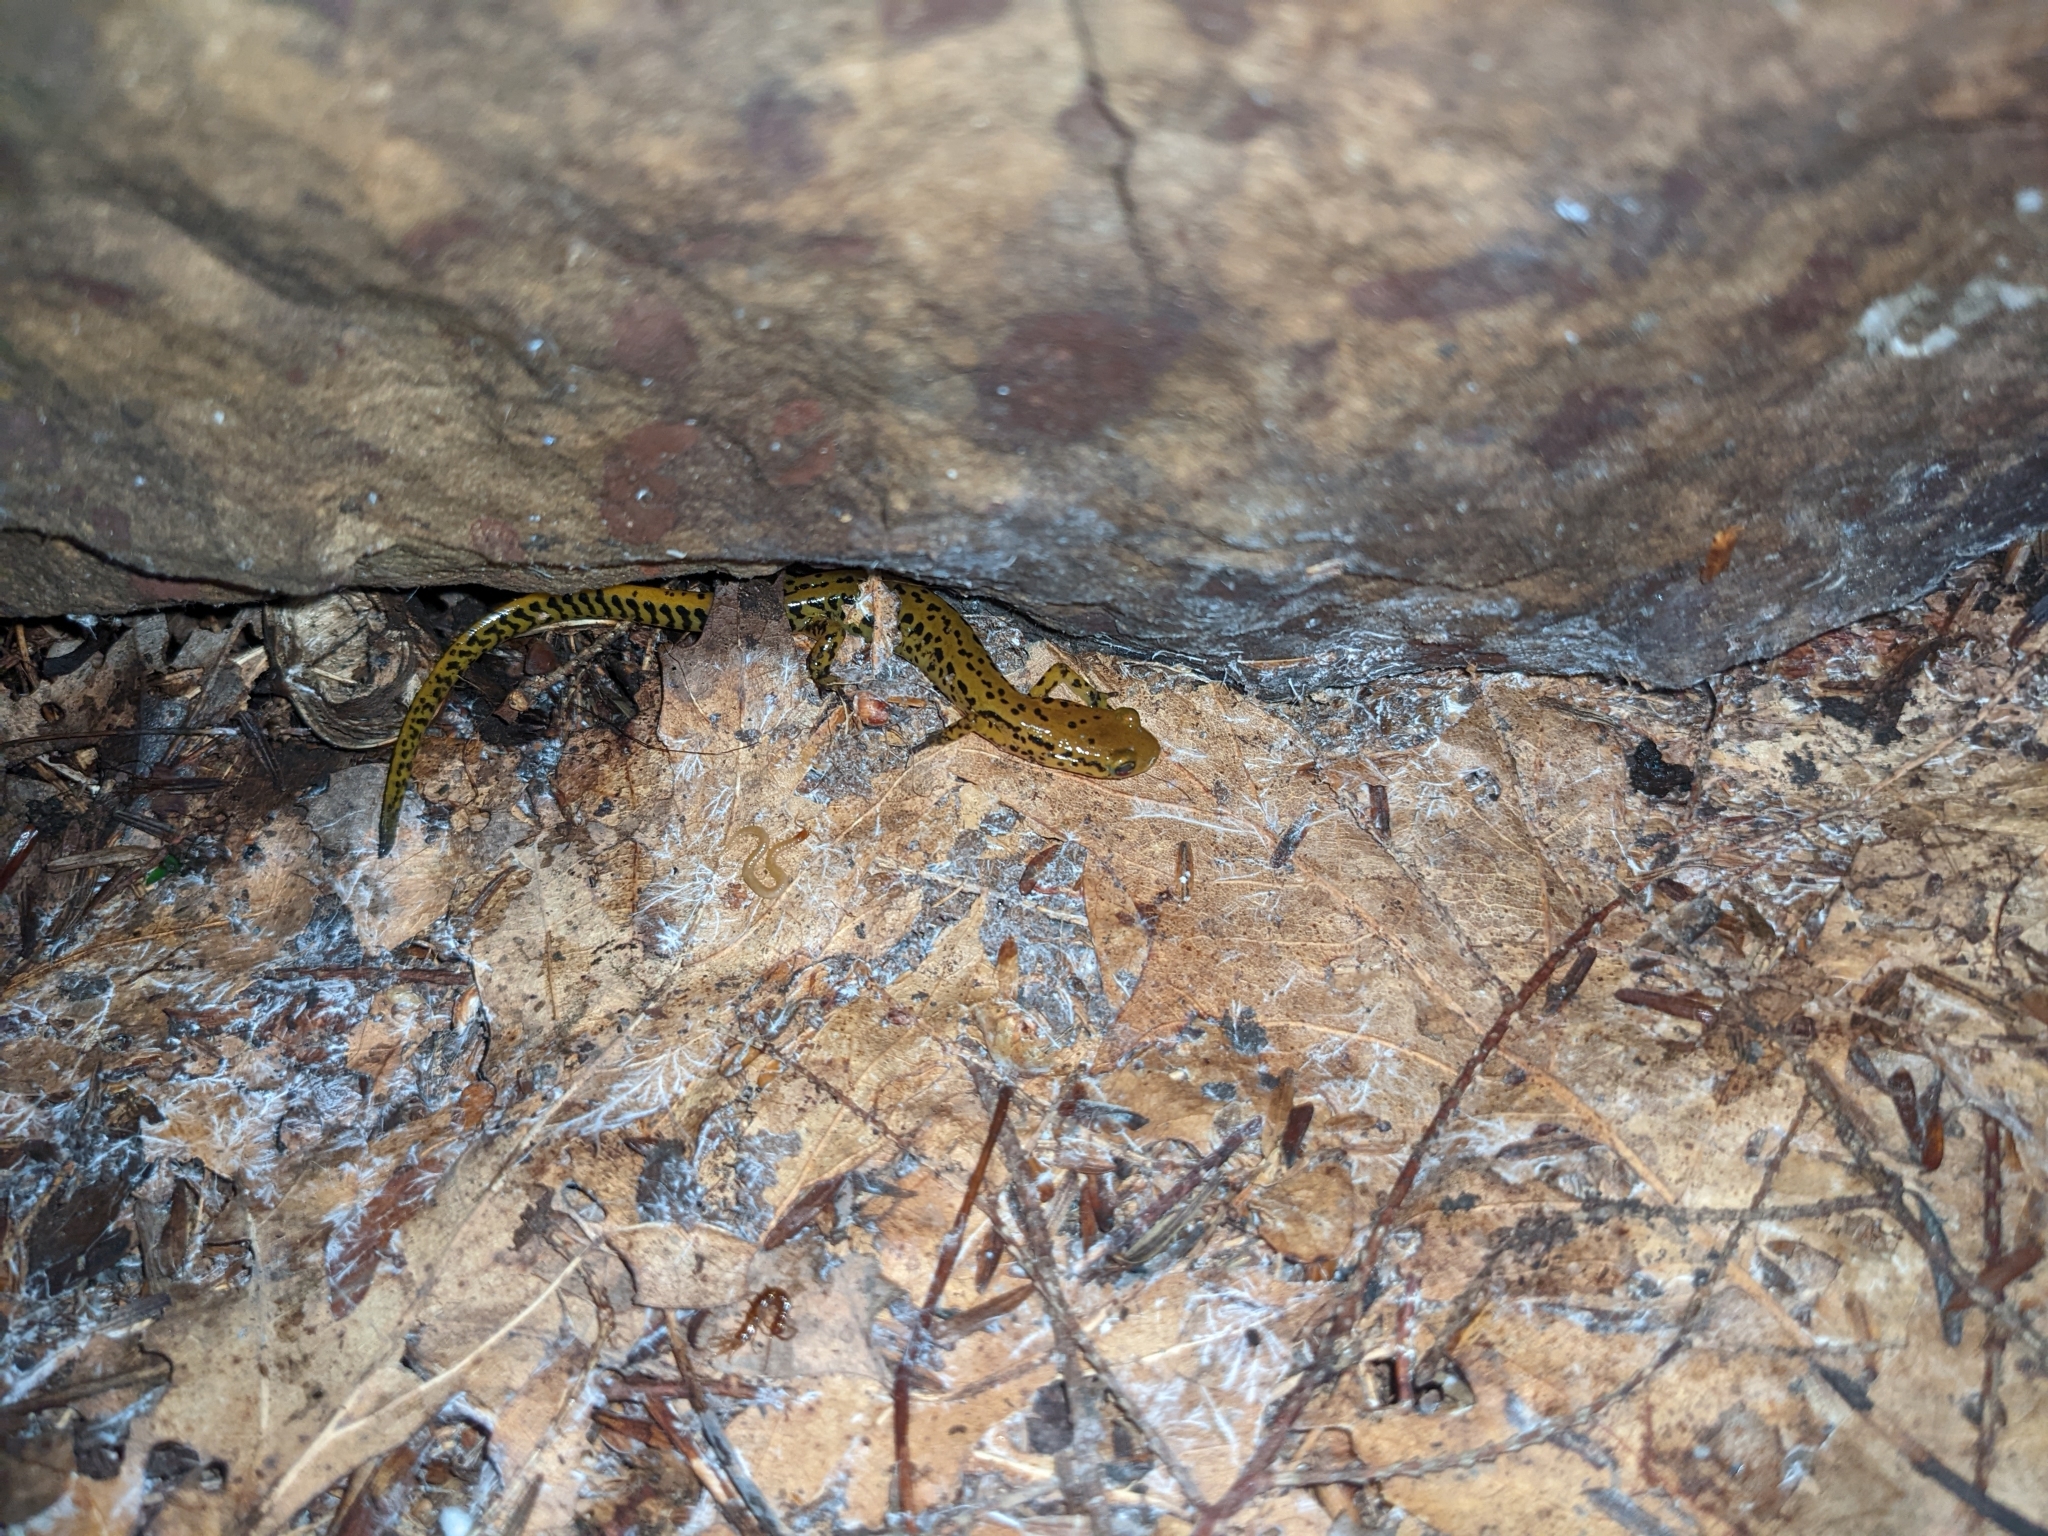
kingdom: Animalia
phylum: Chordata
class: Amphibia
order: Caudata
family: Plethodontidae
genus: Eurycea
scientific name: Eurycea longicauda
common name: Long-tailed salamander
